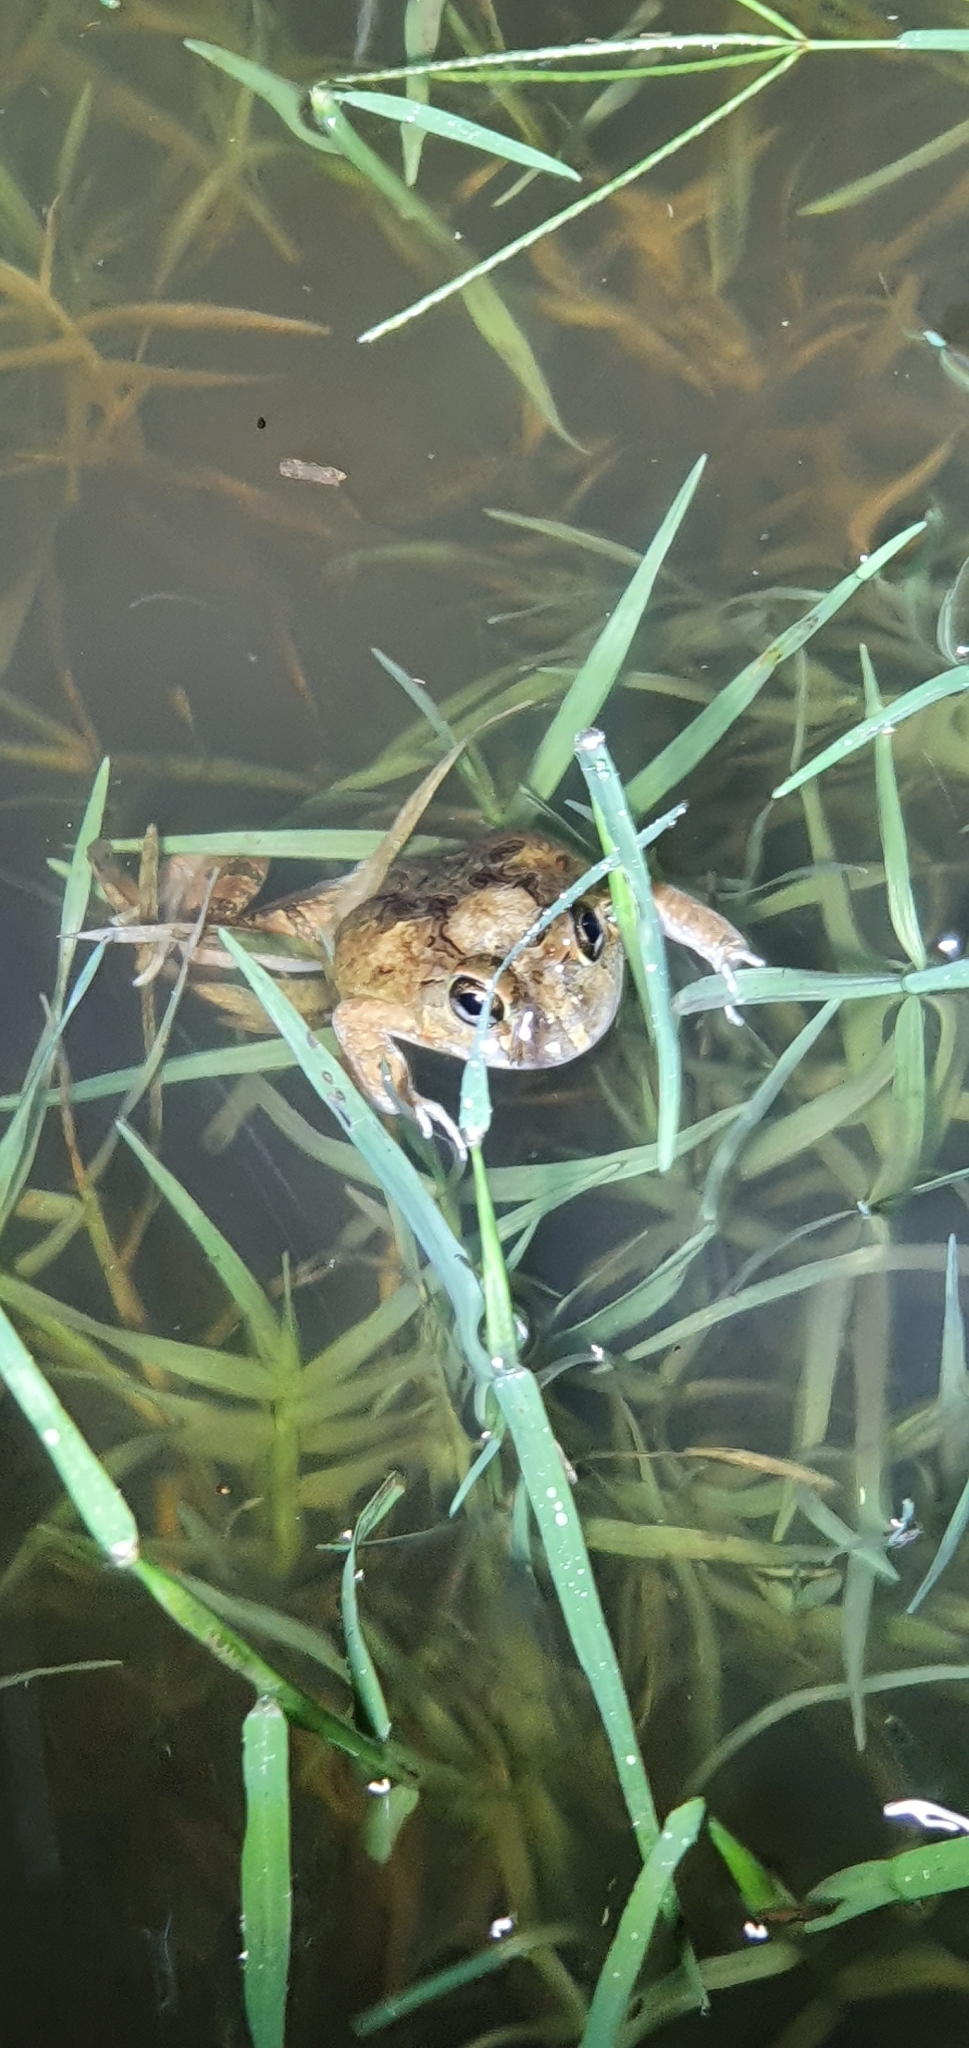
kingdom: Animalia
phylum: Chordata
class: Amphibia
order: Anura
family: Limnodynastidae
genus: Platyplectrum
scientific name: Platyplectrum ornatum
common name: Ornate burrowing frog
